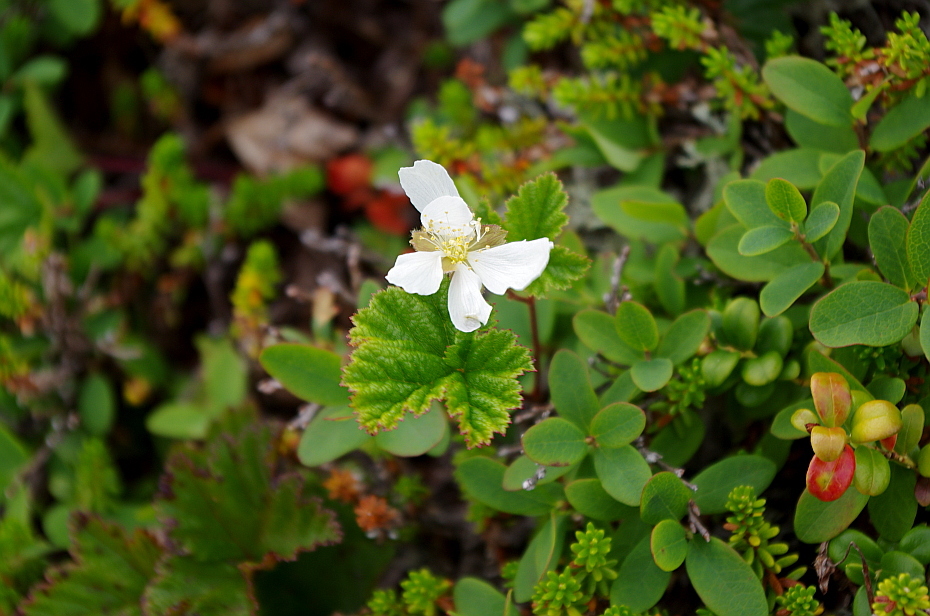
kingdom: Plantae
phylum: Tracheophyta
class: Magnoliopsida
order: Rosales
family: Rosaceae
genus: Rubus
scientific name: Rubus chamaemorus
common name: Cloudberry
